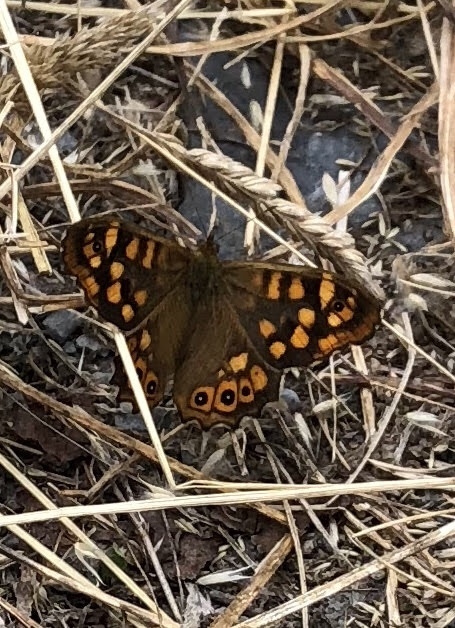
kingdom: Animalia
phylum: Arthropoda
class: Insecta
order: Lepidoptera
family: Nymphalidae
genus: Pararge
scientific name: Pararge aegeria
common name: Speckled wood
